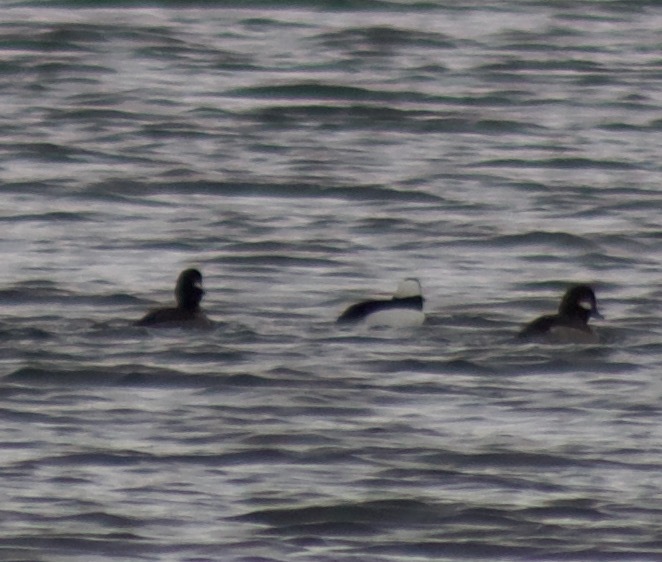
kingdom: Animalia
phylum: Chordata
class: Aves
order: Anseriformes
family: Anatidae
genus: Bucephala
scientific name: Bucephala albeola
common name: Bufflehead
